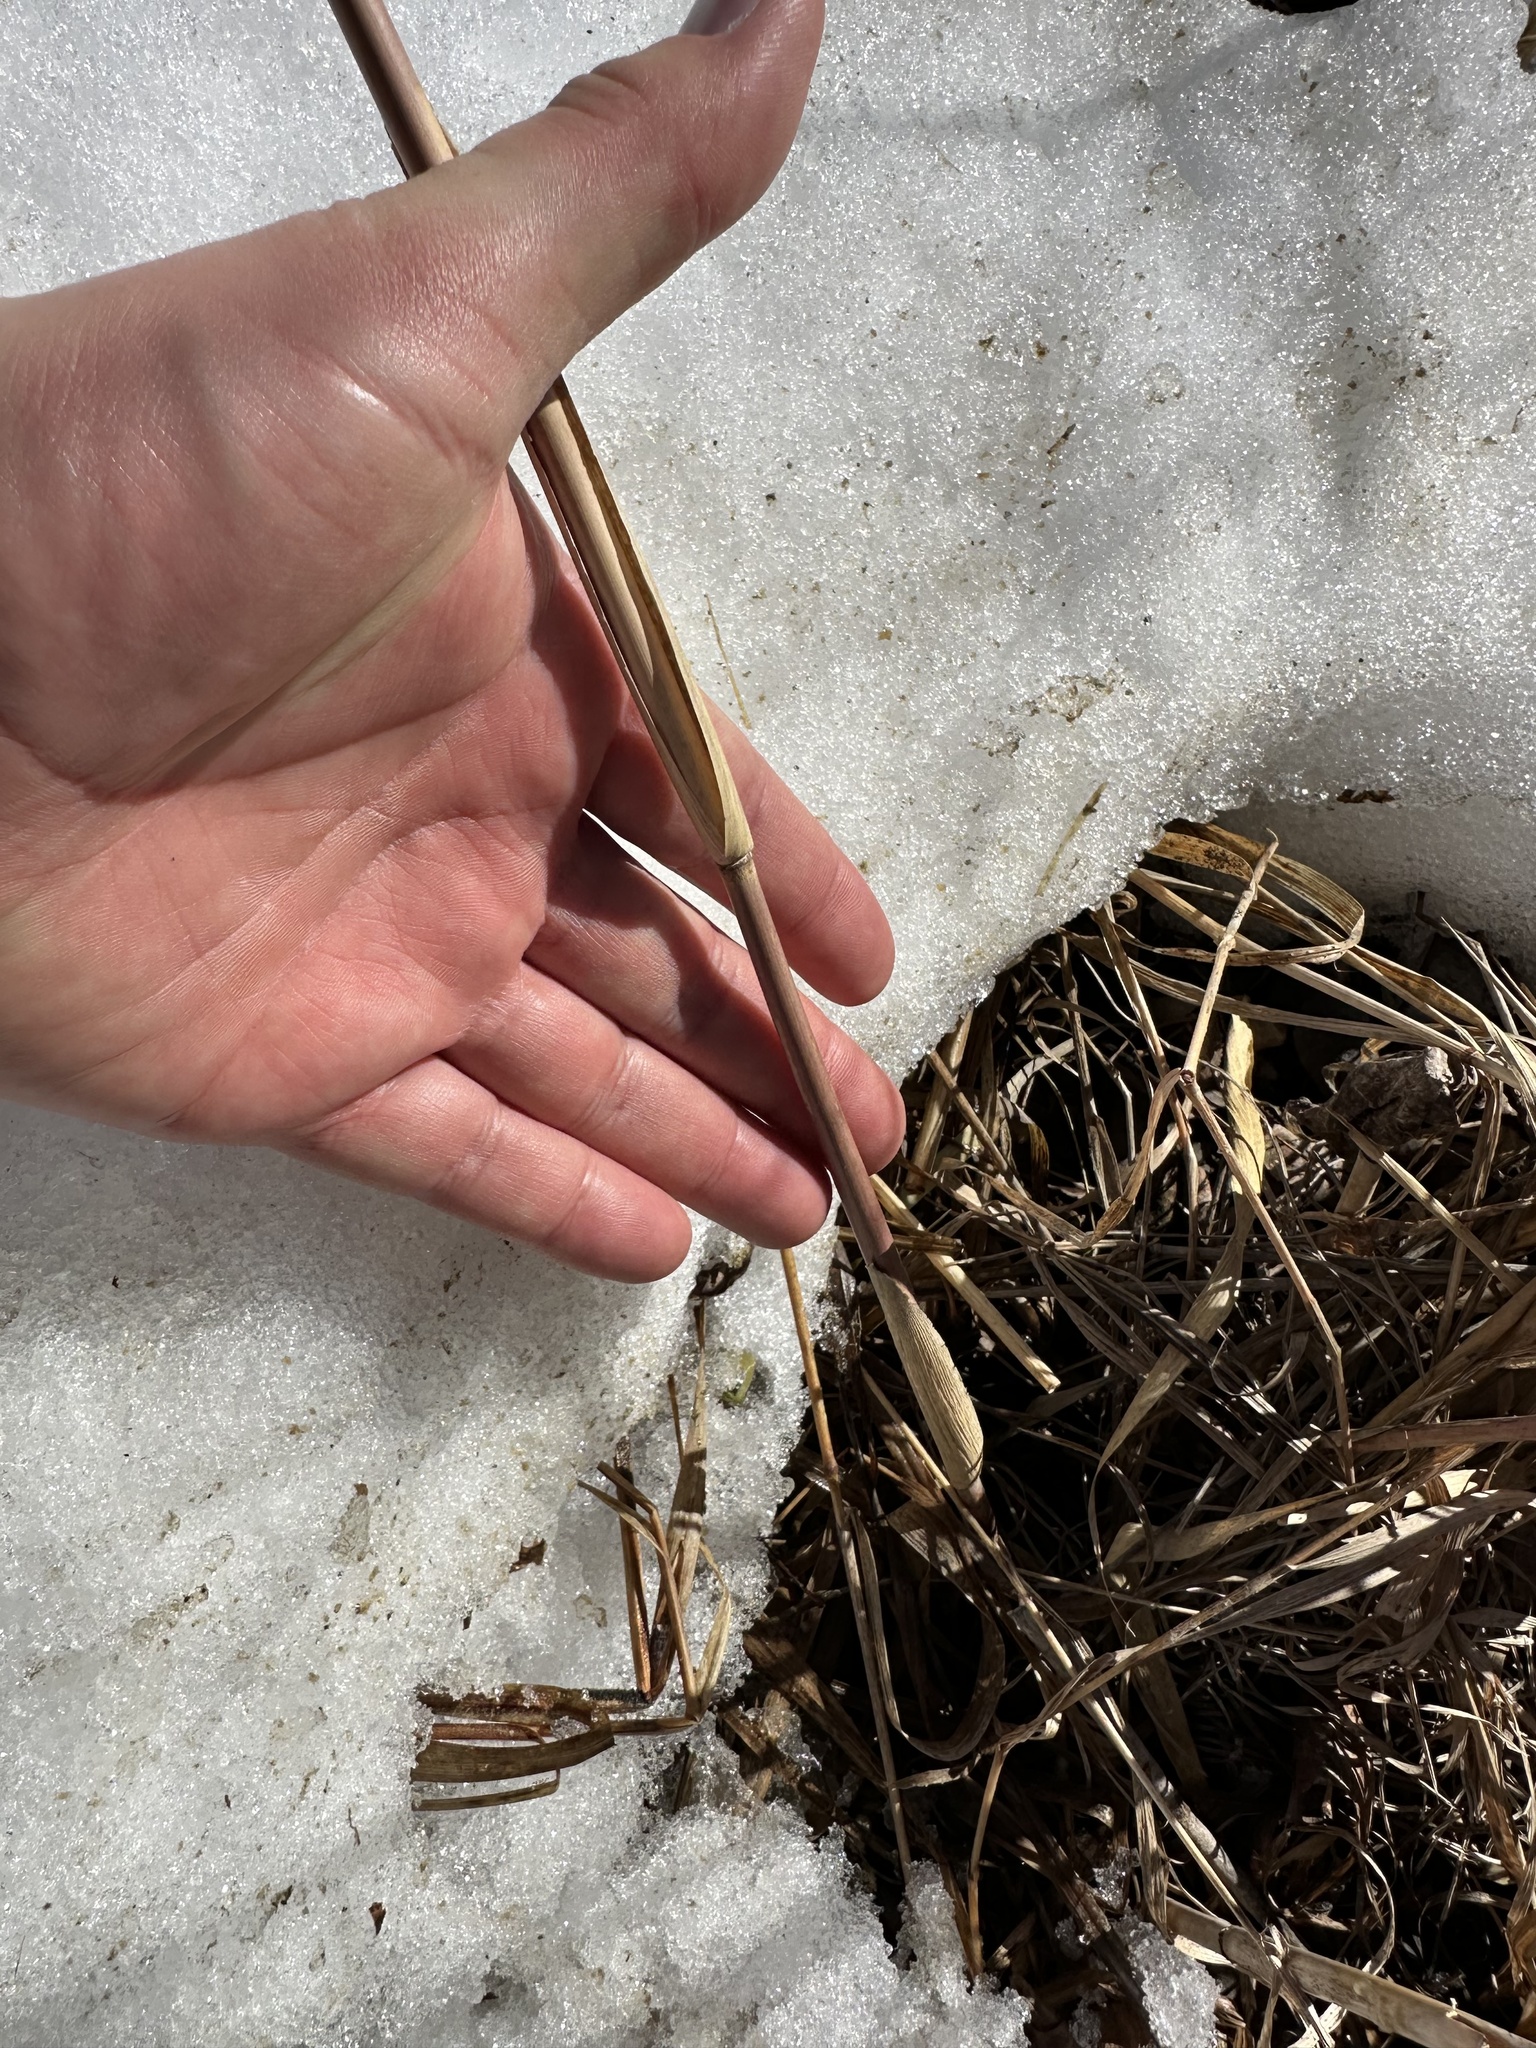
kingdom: Plantae
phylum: Tracheophyta
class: Liliopsida
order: Poales
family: Poaceae
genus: Phragmites
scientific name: Phragmites australis
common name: Common reed
